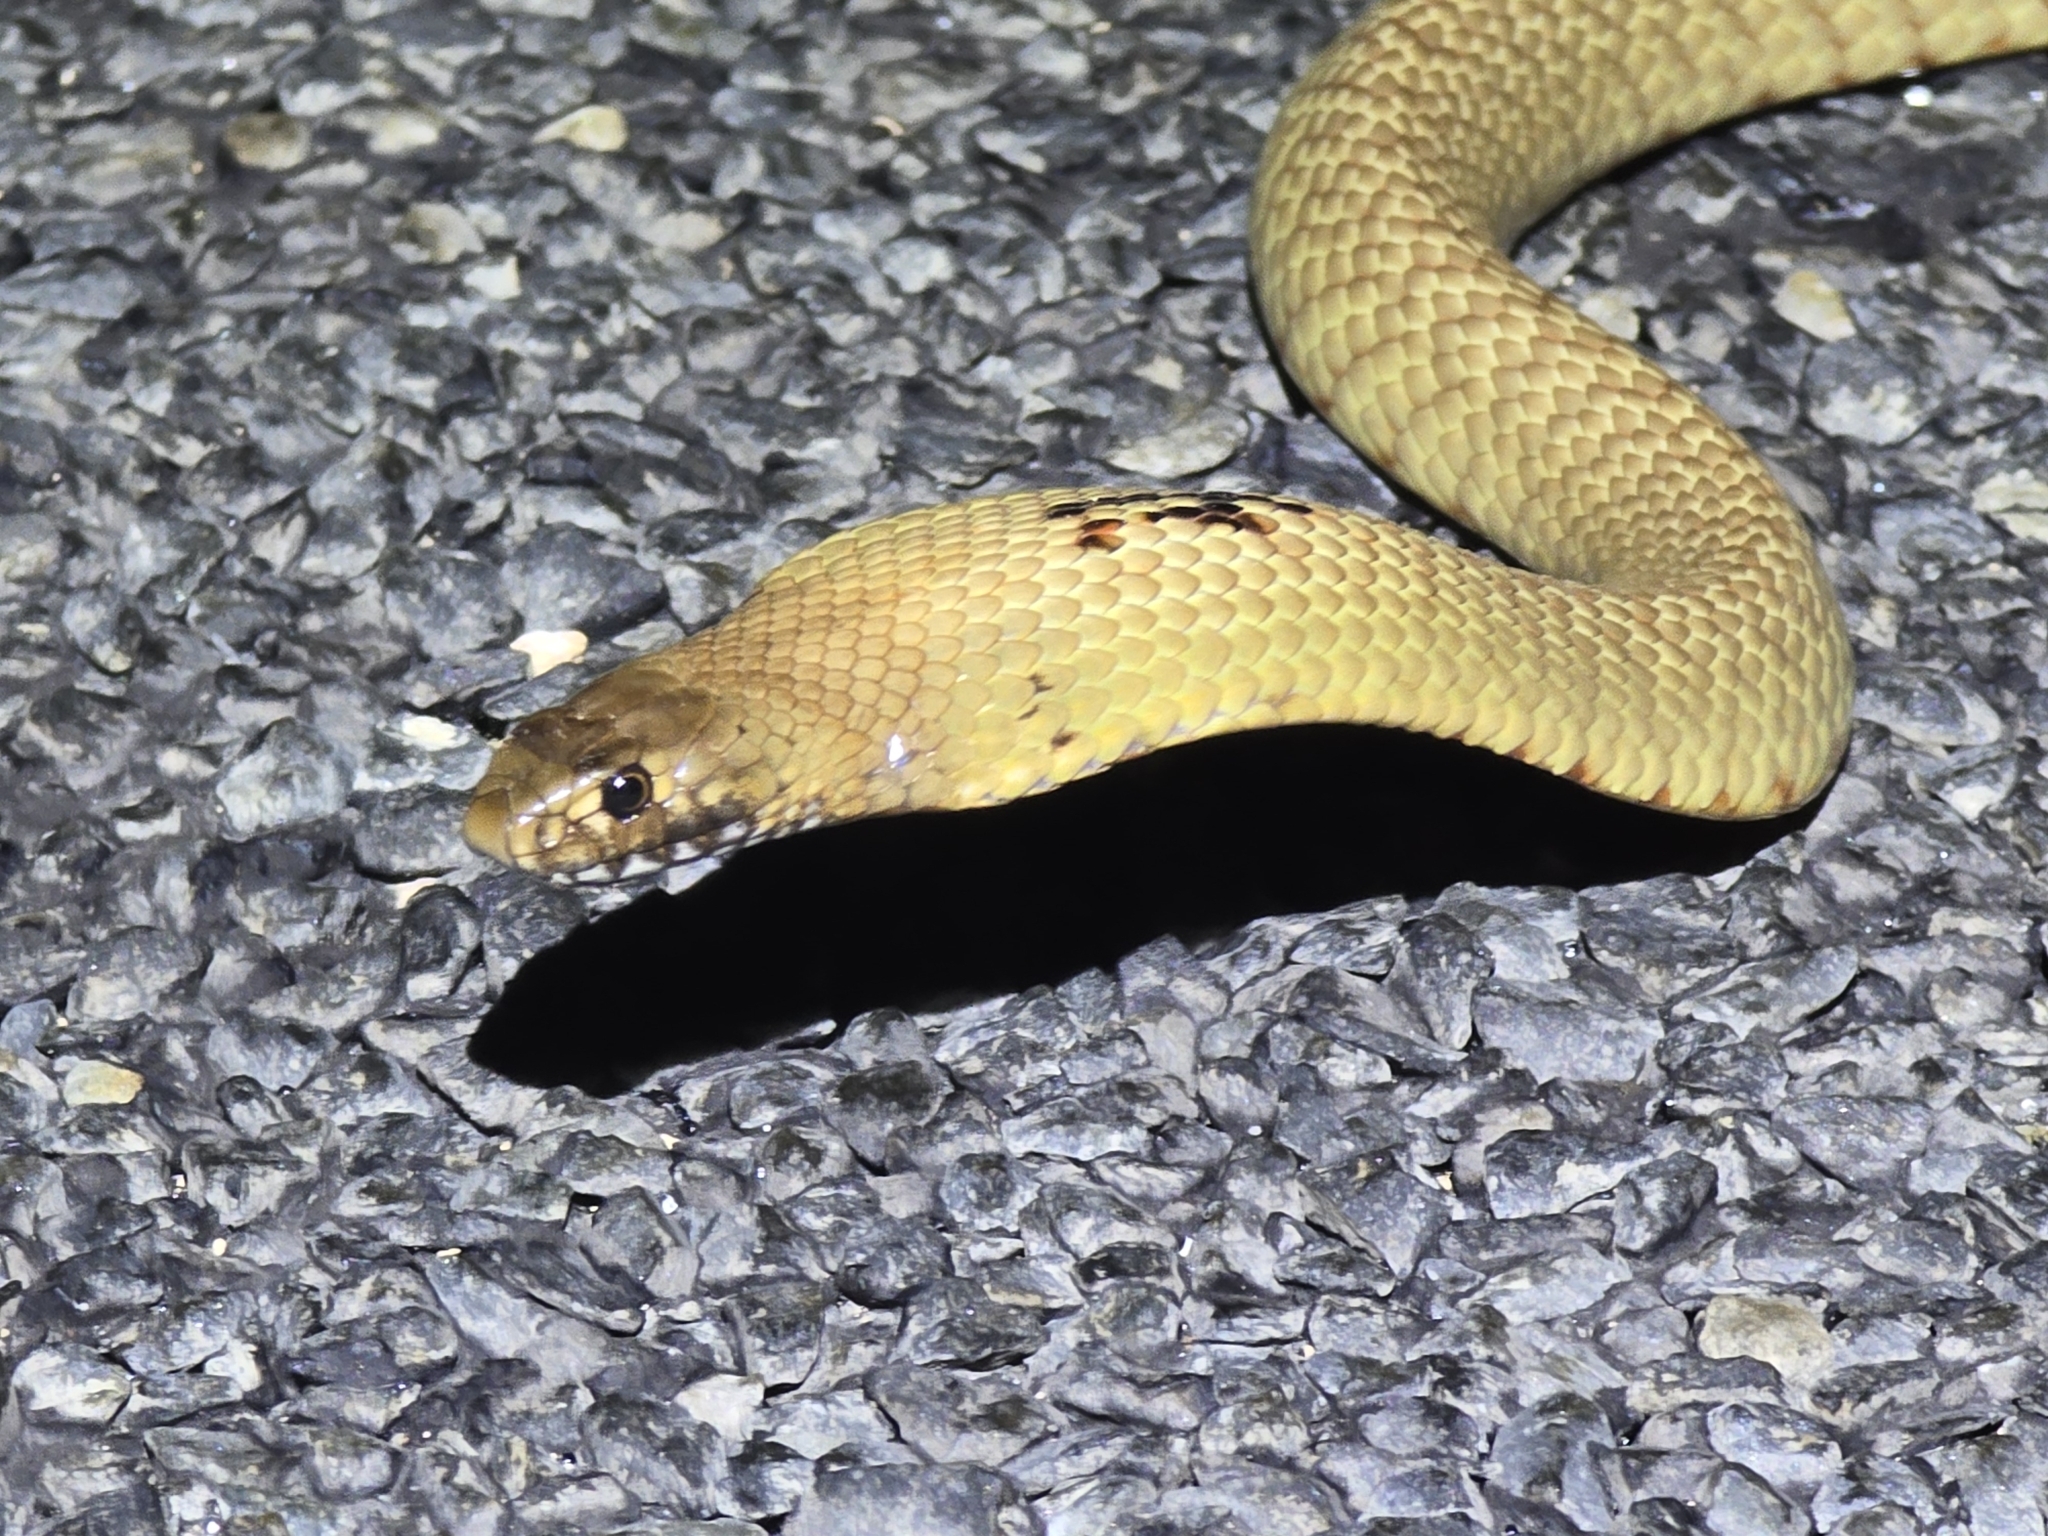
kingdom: Animalia
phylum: Chordata
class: Squamata
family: Elapidae
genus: Pseudonaja
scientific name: Pseudonaja aspidorhyncha
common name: Strap-snouted brown snake
